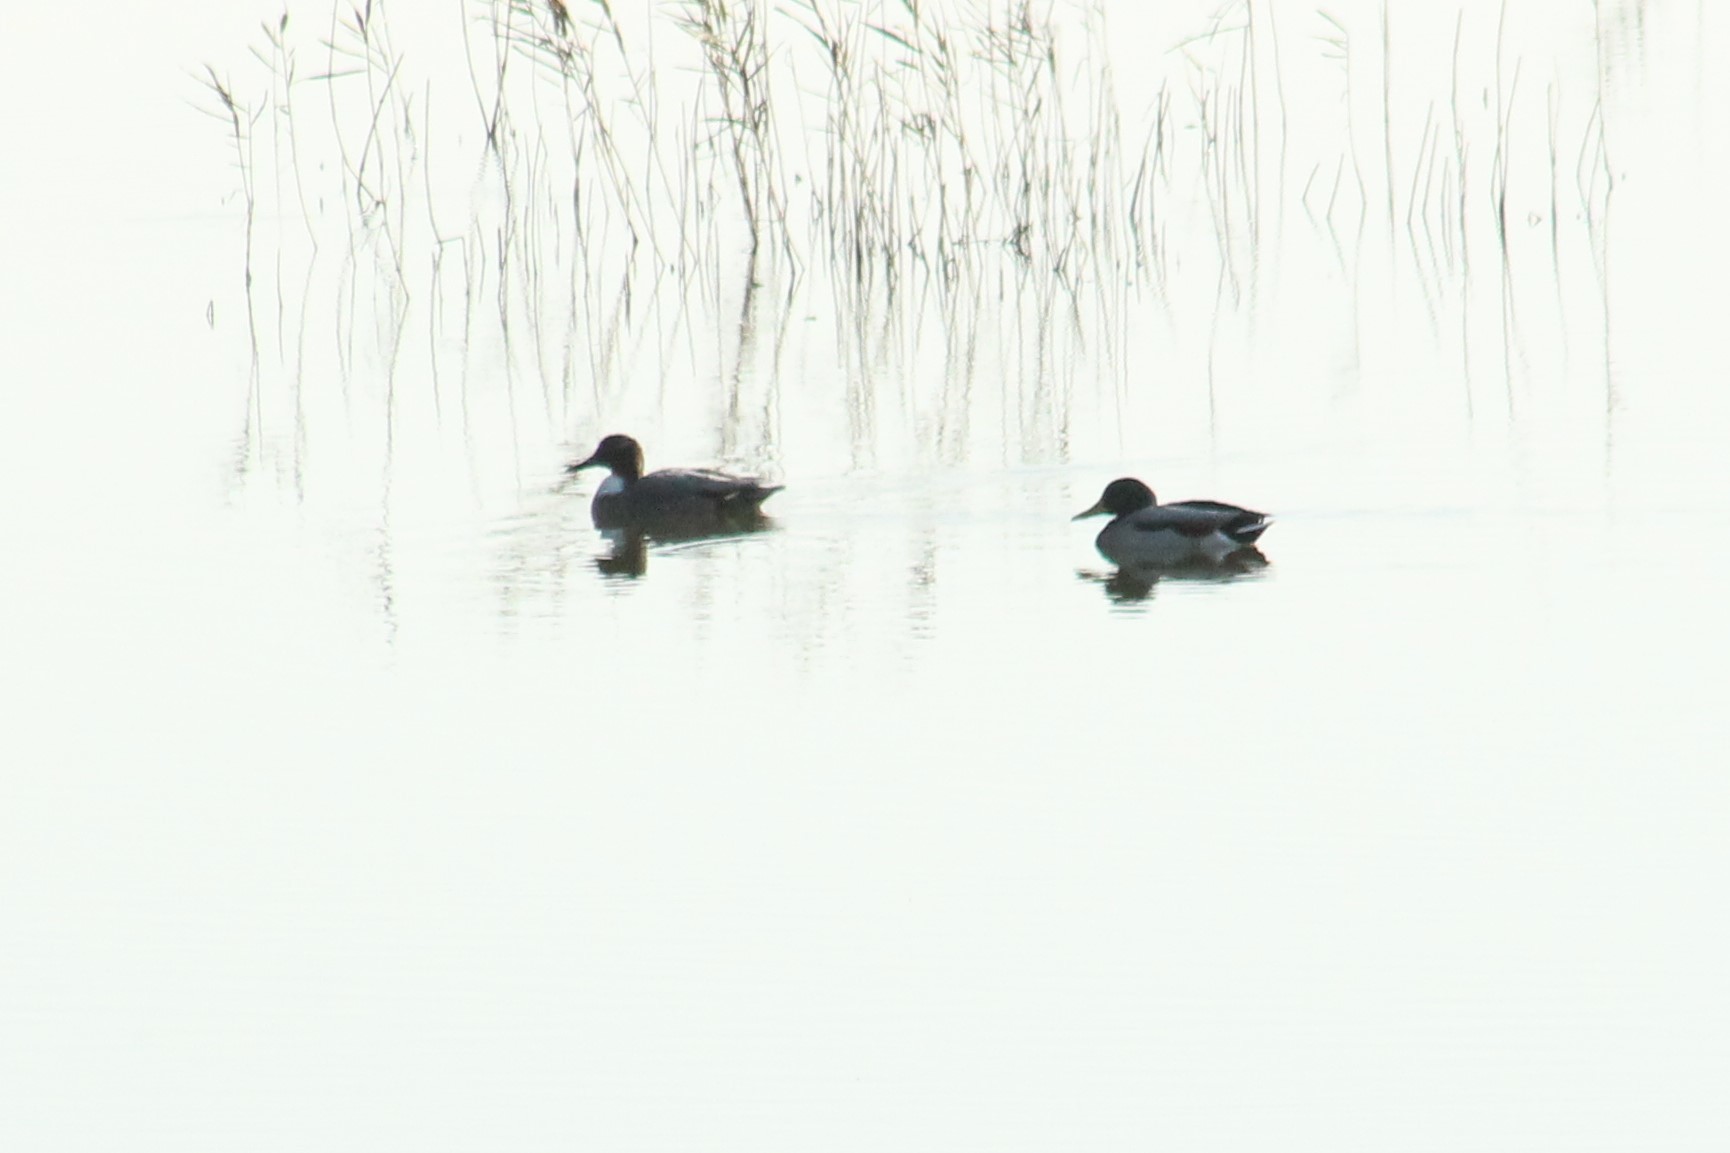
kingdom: Animalia
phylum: Chordata
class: Aves
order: Anseriformes
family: Anatidae
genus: Anas
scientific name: Anas platyrhynchos
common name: Mallard
